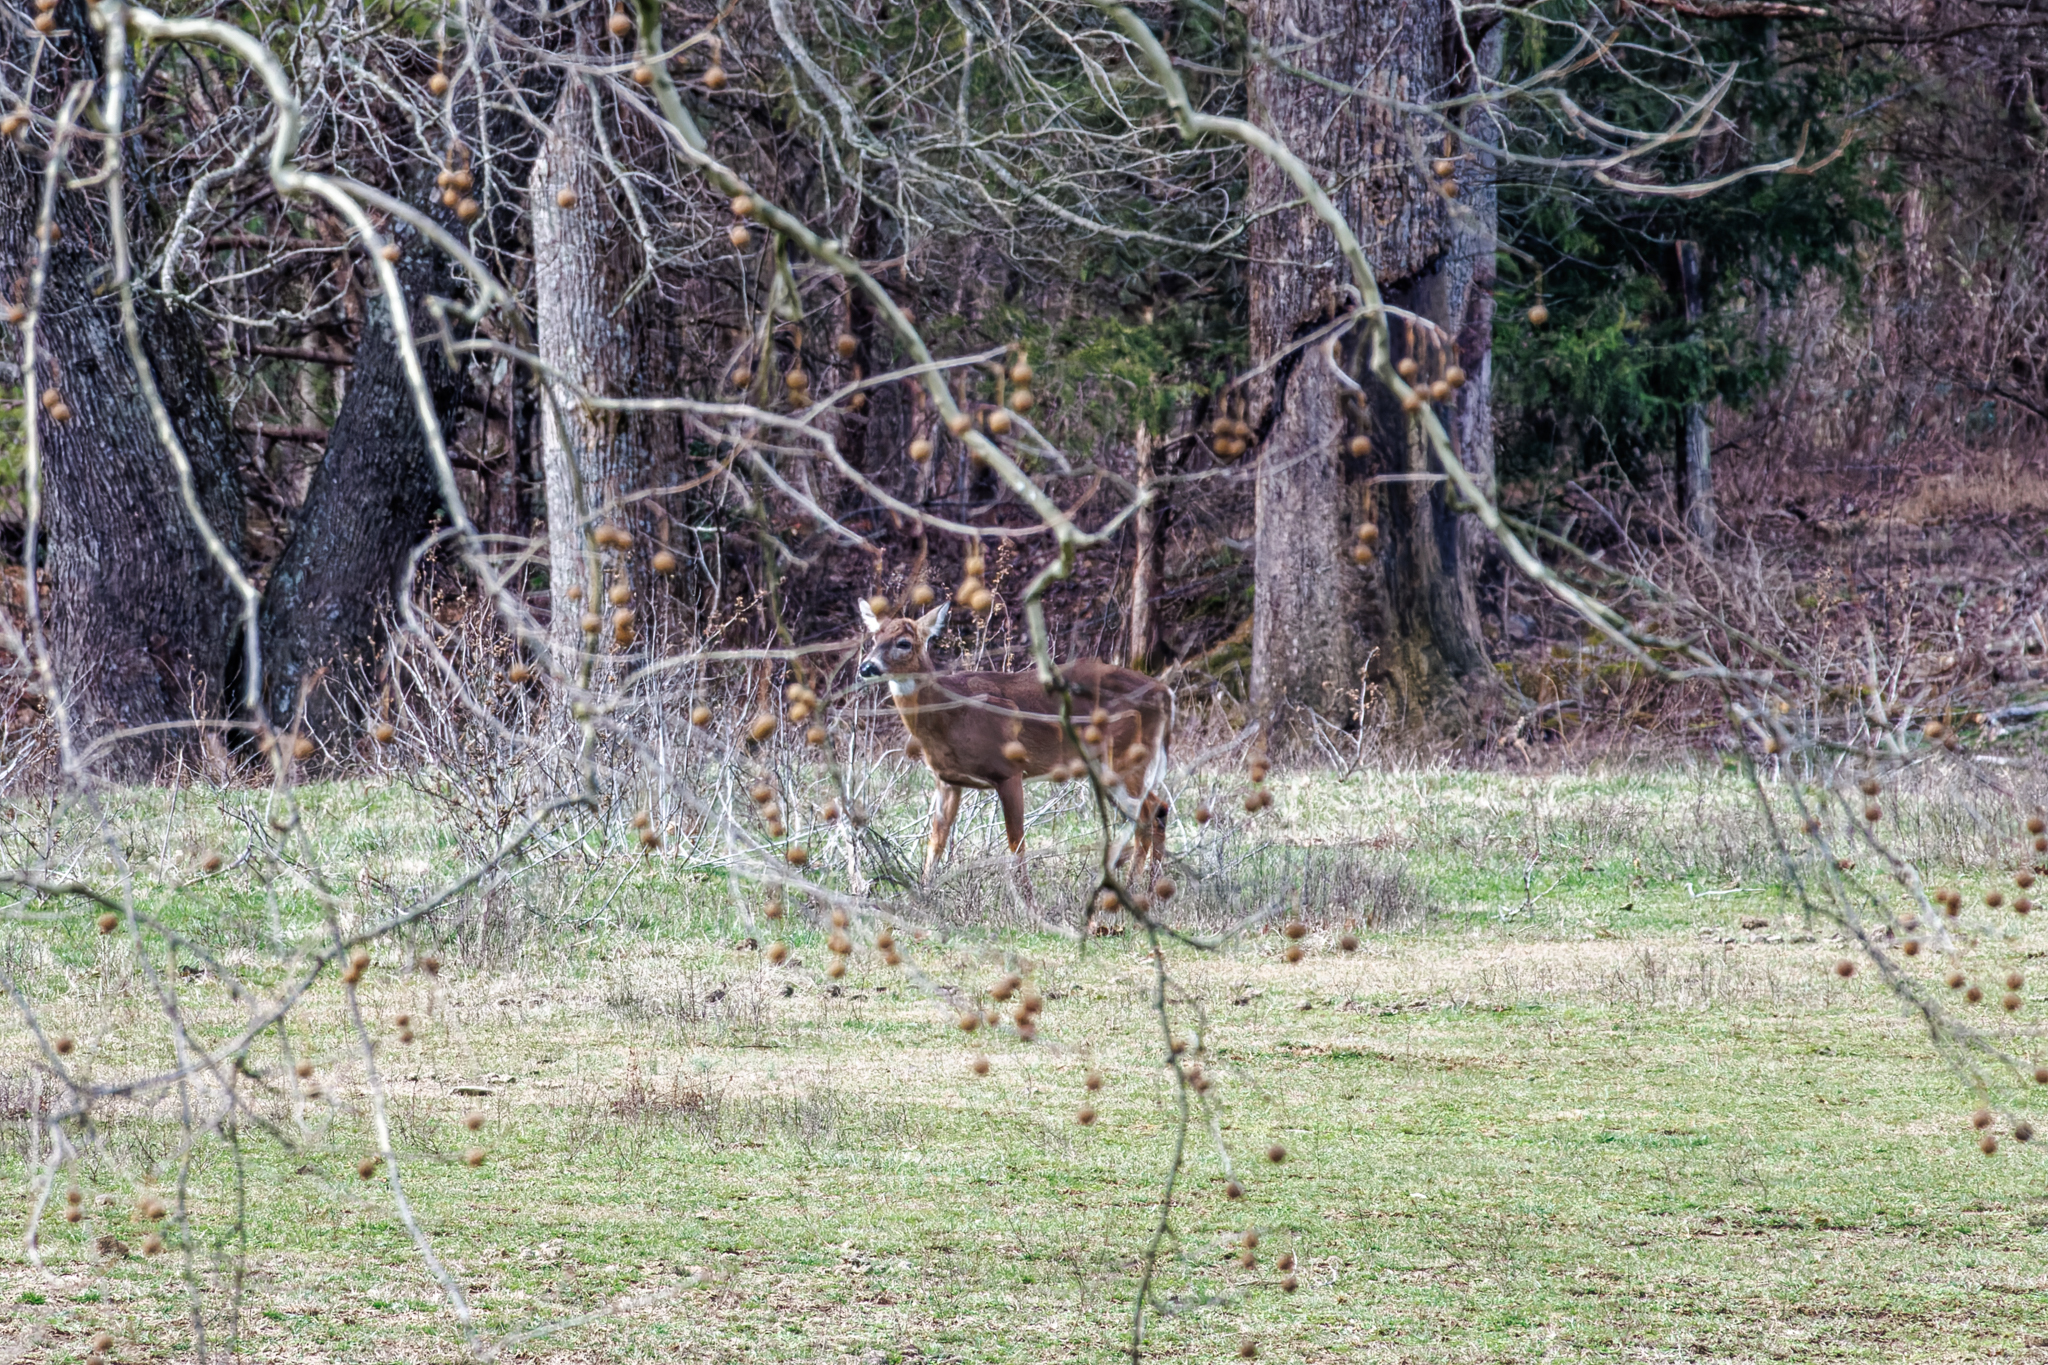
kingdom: Animalia
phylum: Chordata
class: Mammalia
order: Artiodactyla
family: Cervidae
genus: Odocoileus
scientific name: Odocoileus virginianus
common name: White-tailed deer
